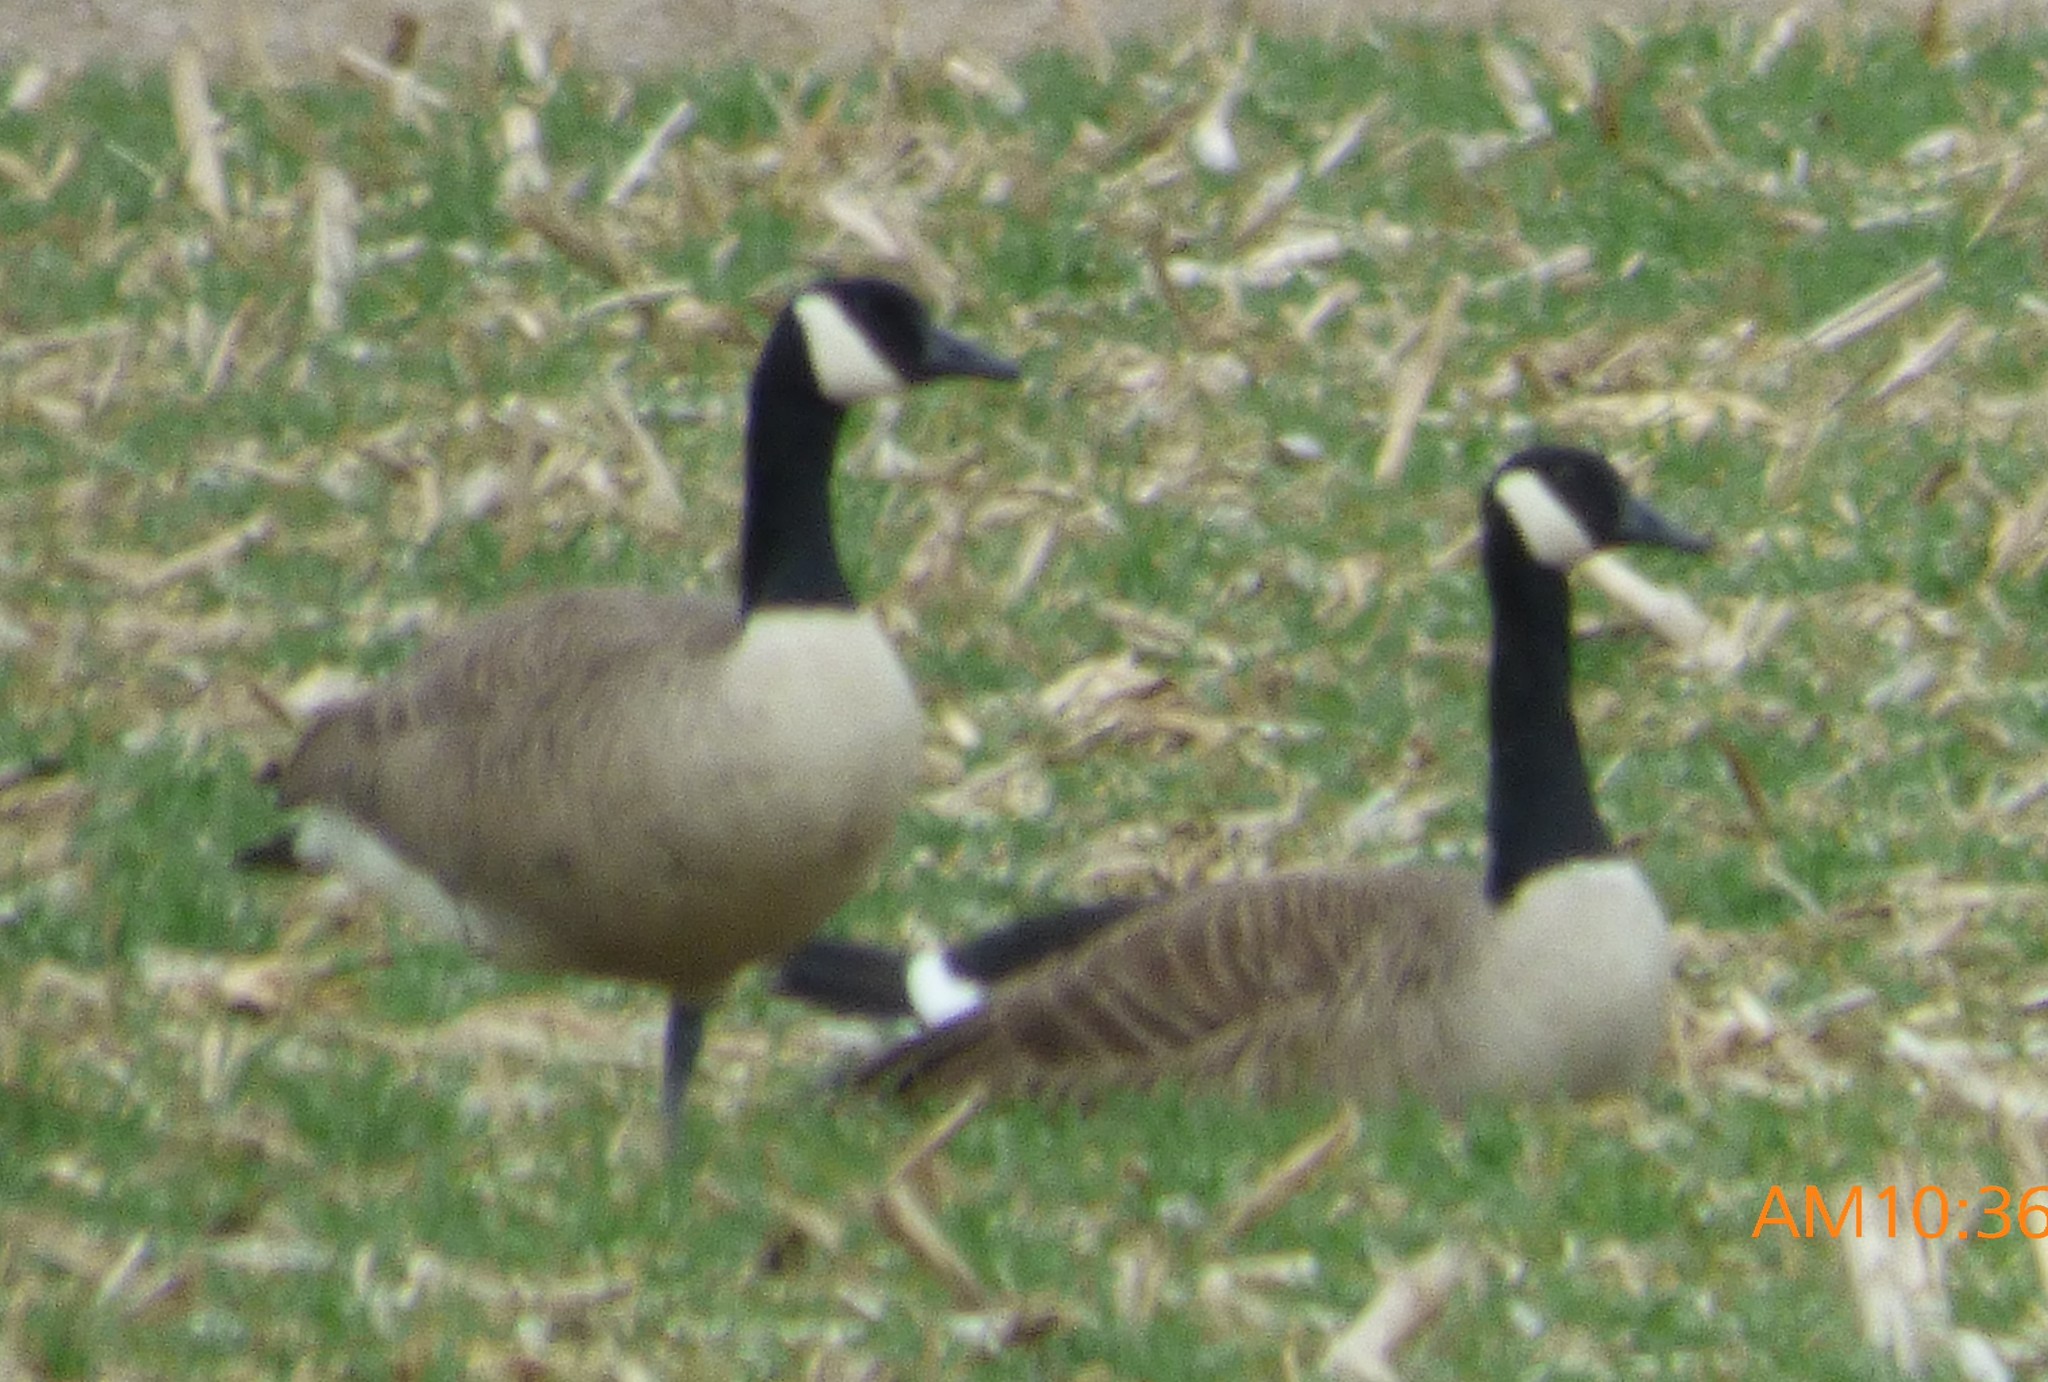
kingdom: Animalia
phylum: Chordata
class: Aves
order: Anseriformes
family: Anatidae
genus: Branta
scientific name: Branta canadensis
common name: Canada goose
